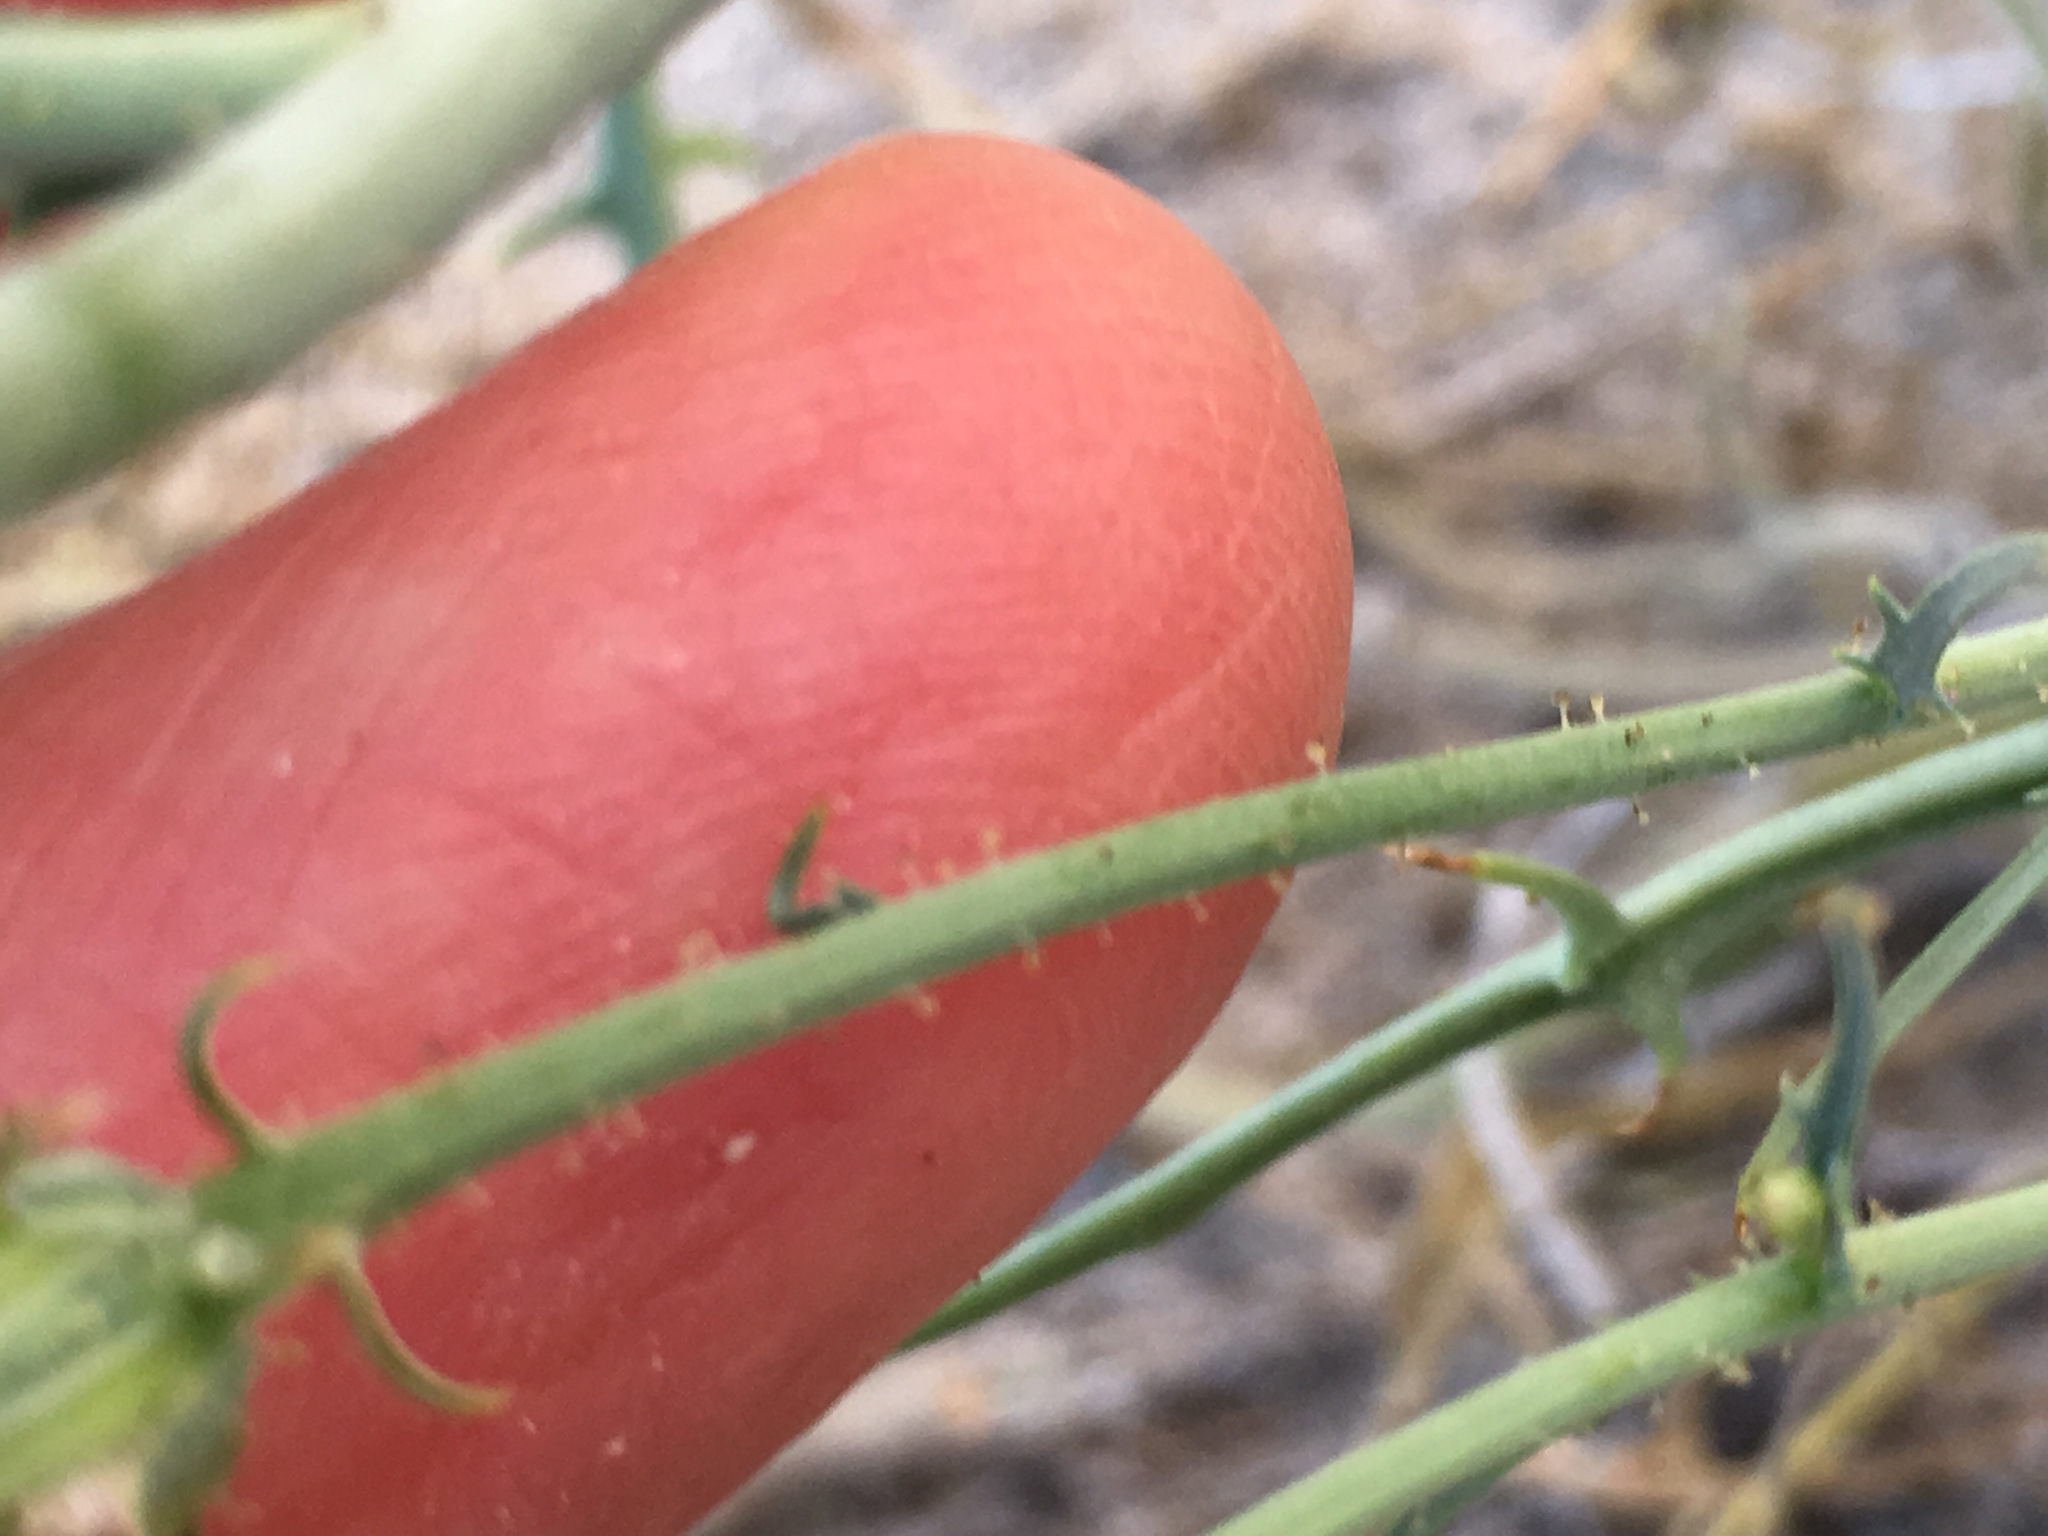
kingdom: Plantae
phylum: Tracheophyta
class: Magnoliopsida
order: Asterales
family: Asteraceae
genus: Calycoseris
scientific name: Calycoseris wrightii
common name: White tackstem
